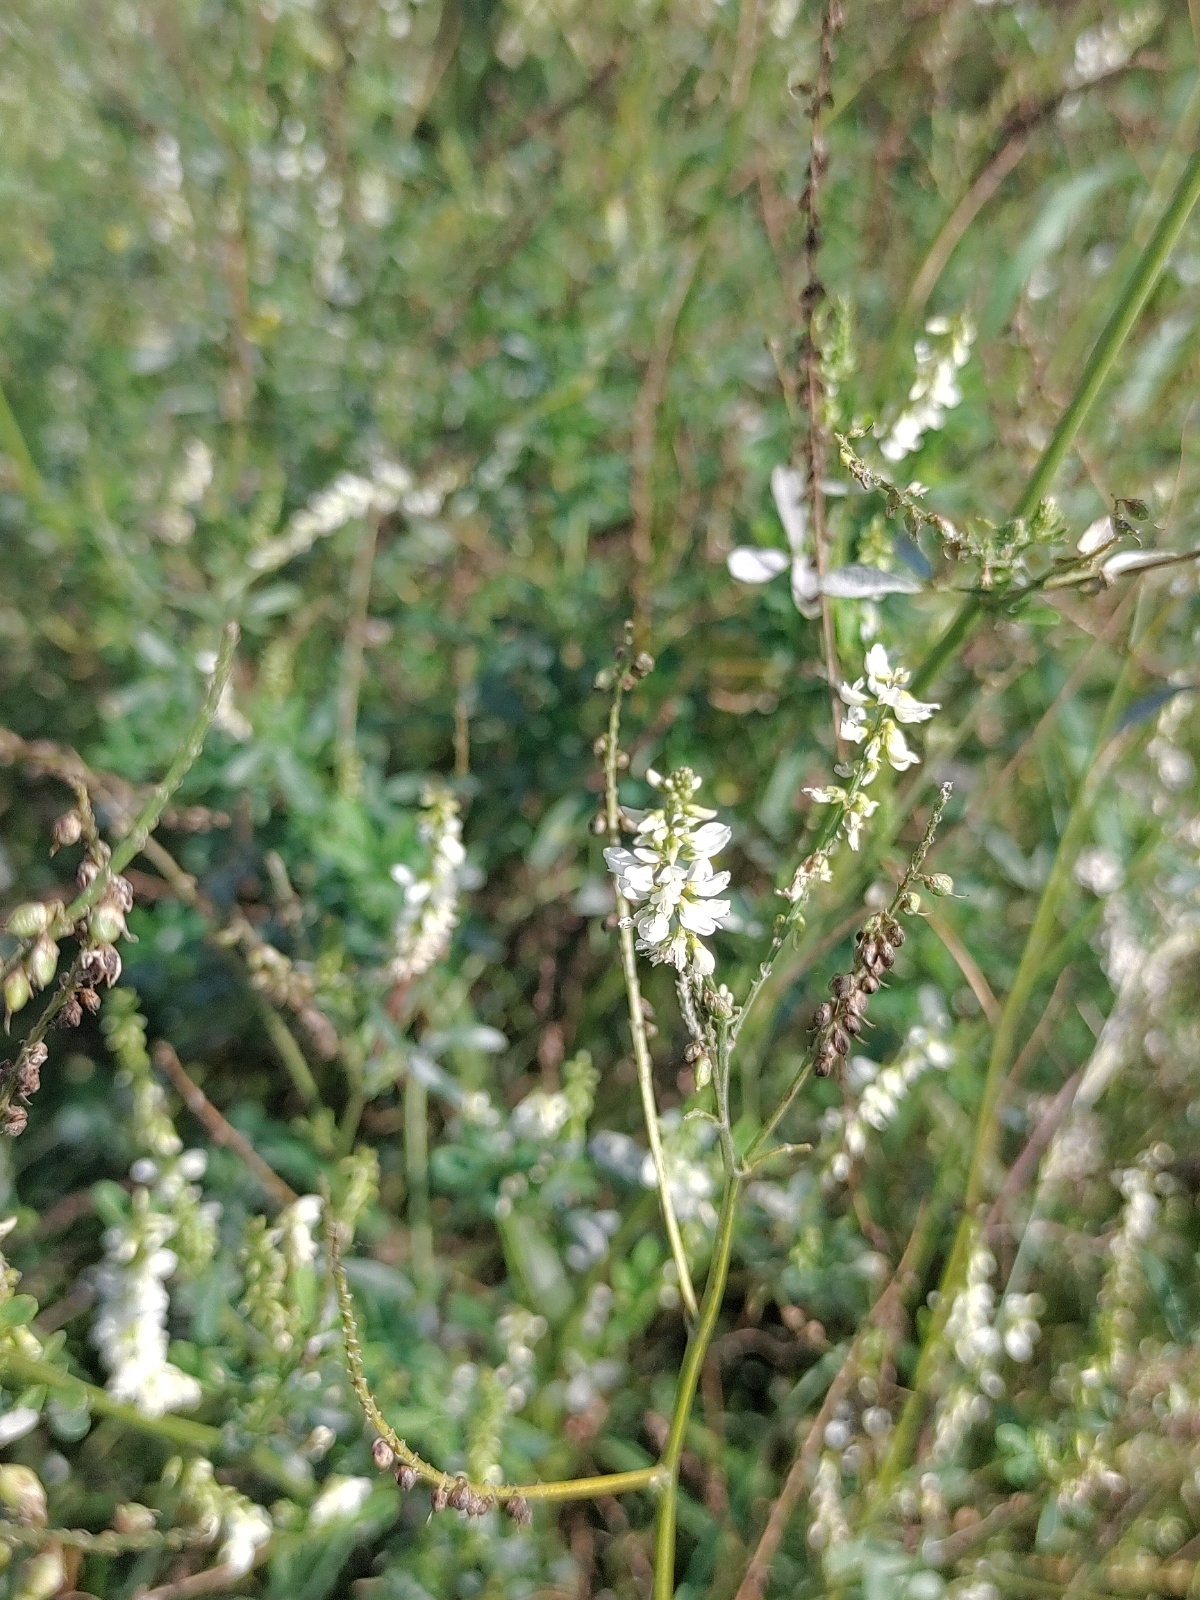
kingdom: Plantae
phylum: Tracheophyta
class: Magnoliopsida
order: Fabales
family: Fabaceae
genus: Melilotus
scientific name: Melilotus albus
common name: White melilot
